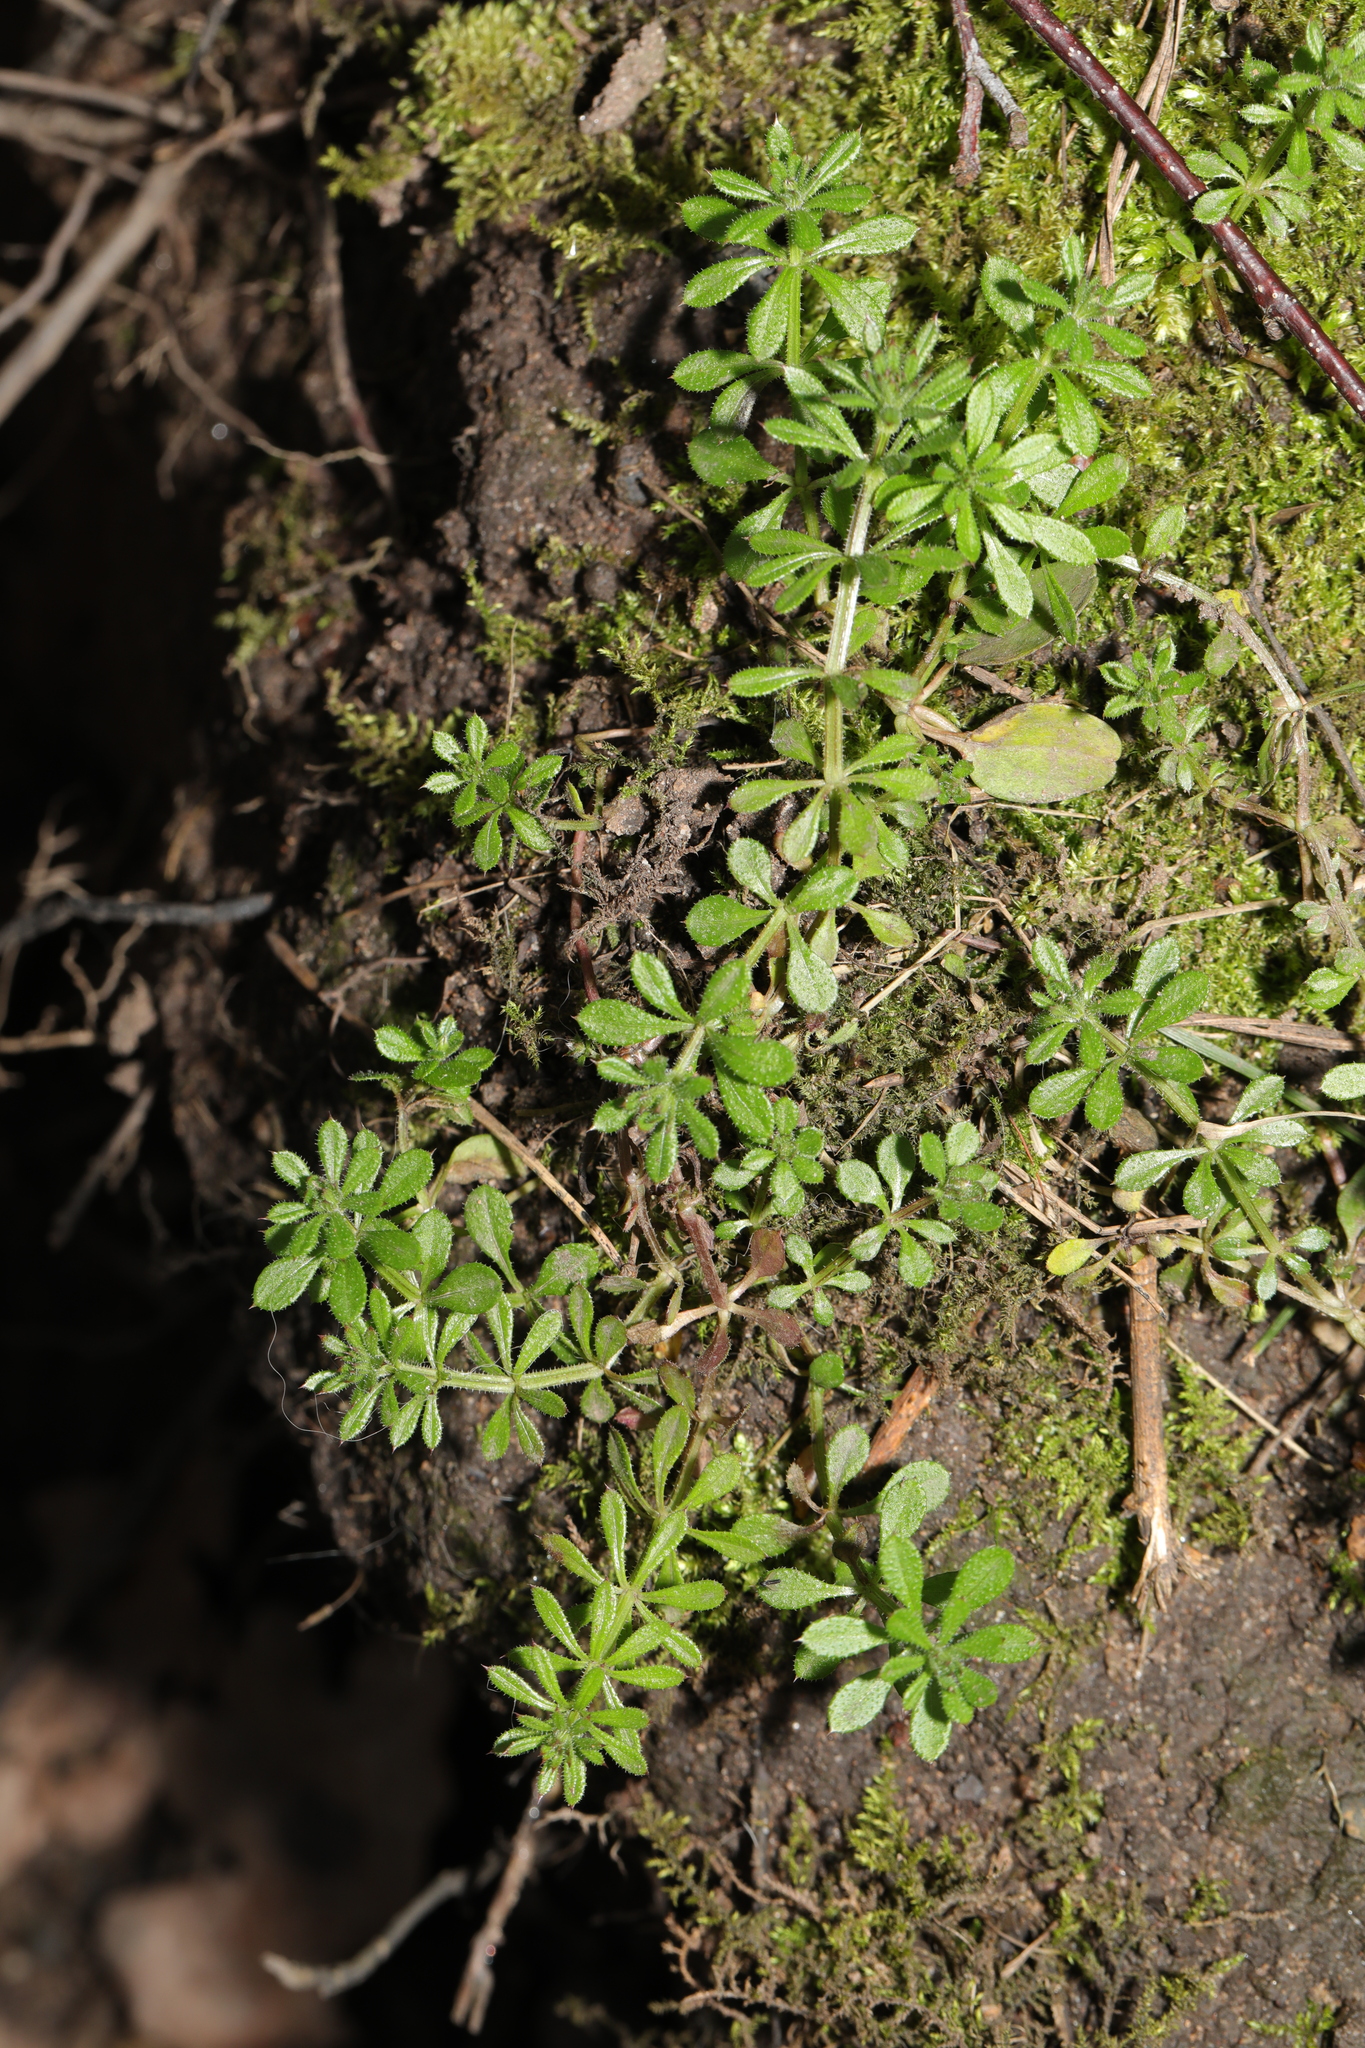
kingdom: Plantae
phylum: Tracheophyta
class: Magnoliopsida
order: Gentianales
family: Rubiaceae
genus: Galium
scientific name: Galium aparine
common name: Cleavers
